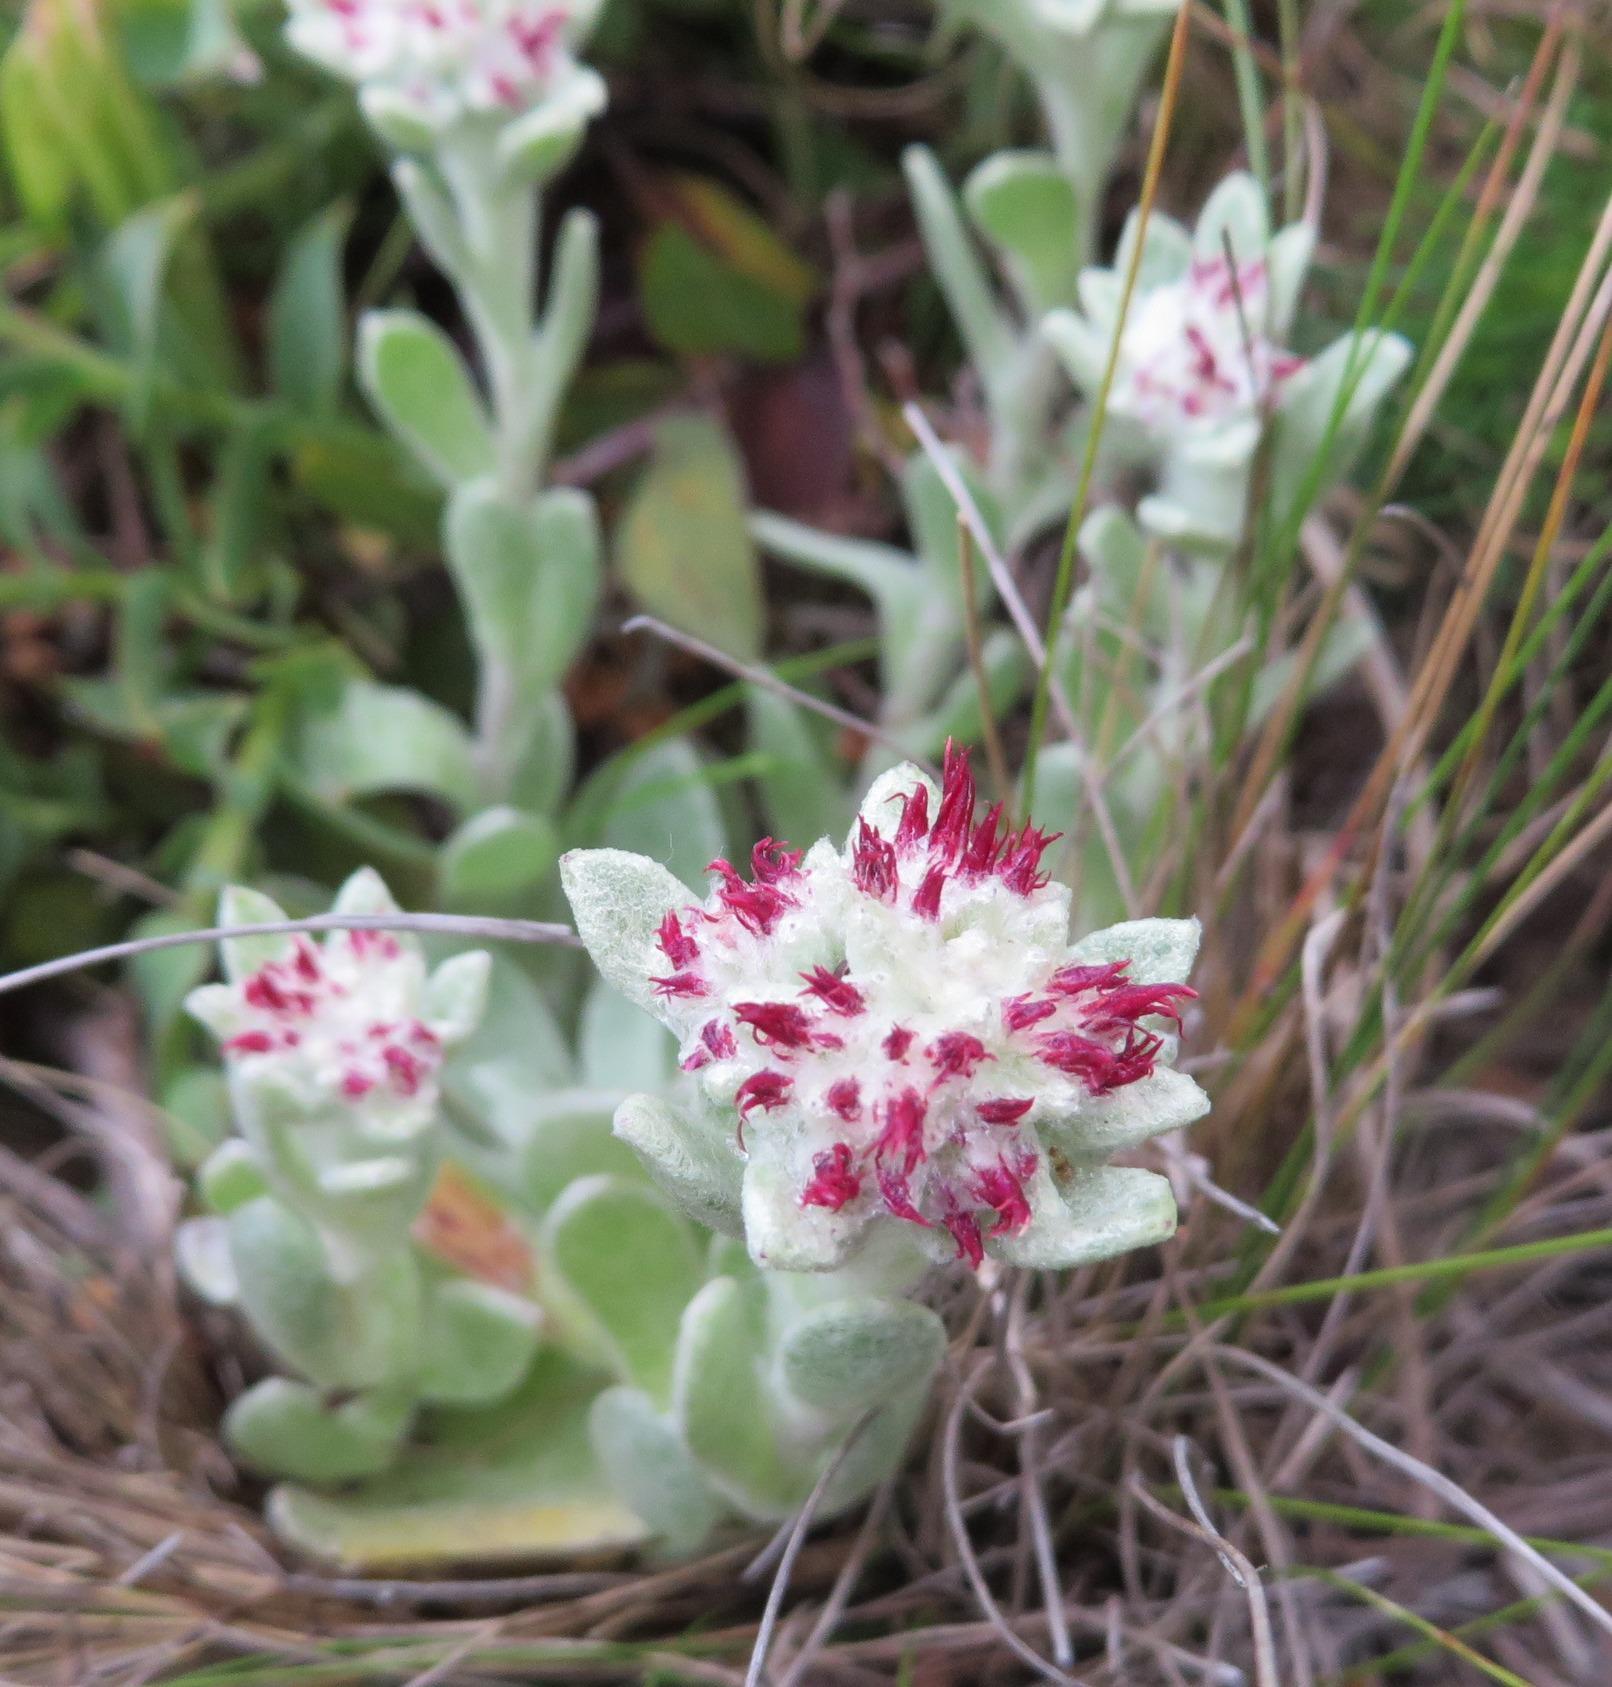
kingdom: Plantae
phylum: Tracheophyta
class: Magnoliopsida
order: Asterales
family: Asteraceae
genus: Helichrysum
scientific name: Helichrysum spiralepis
